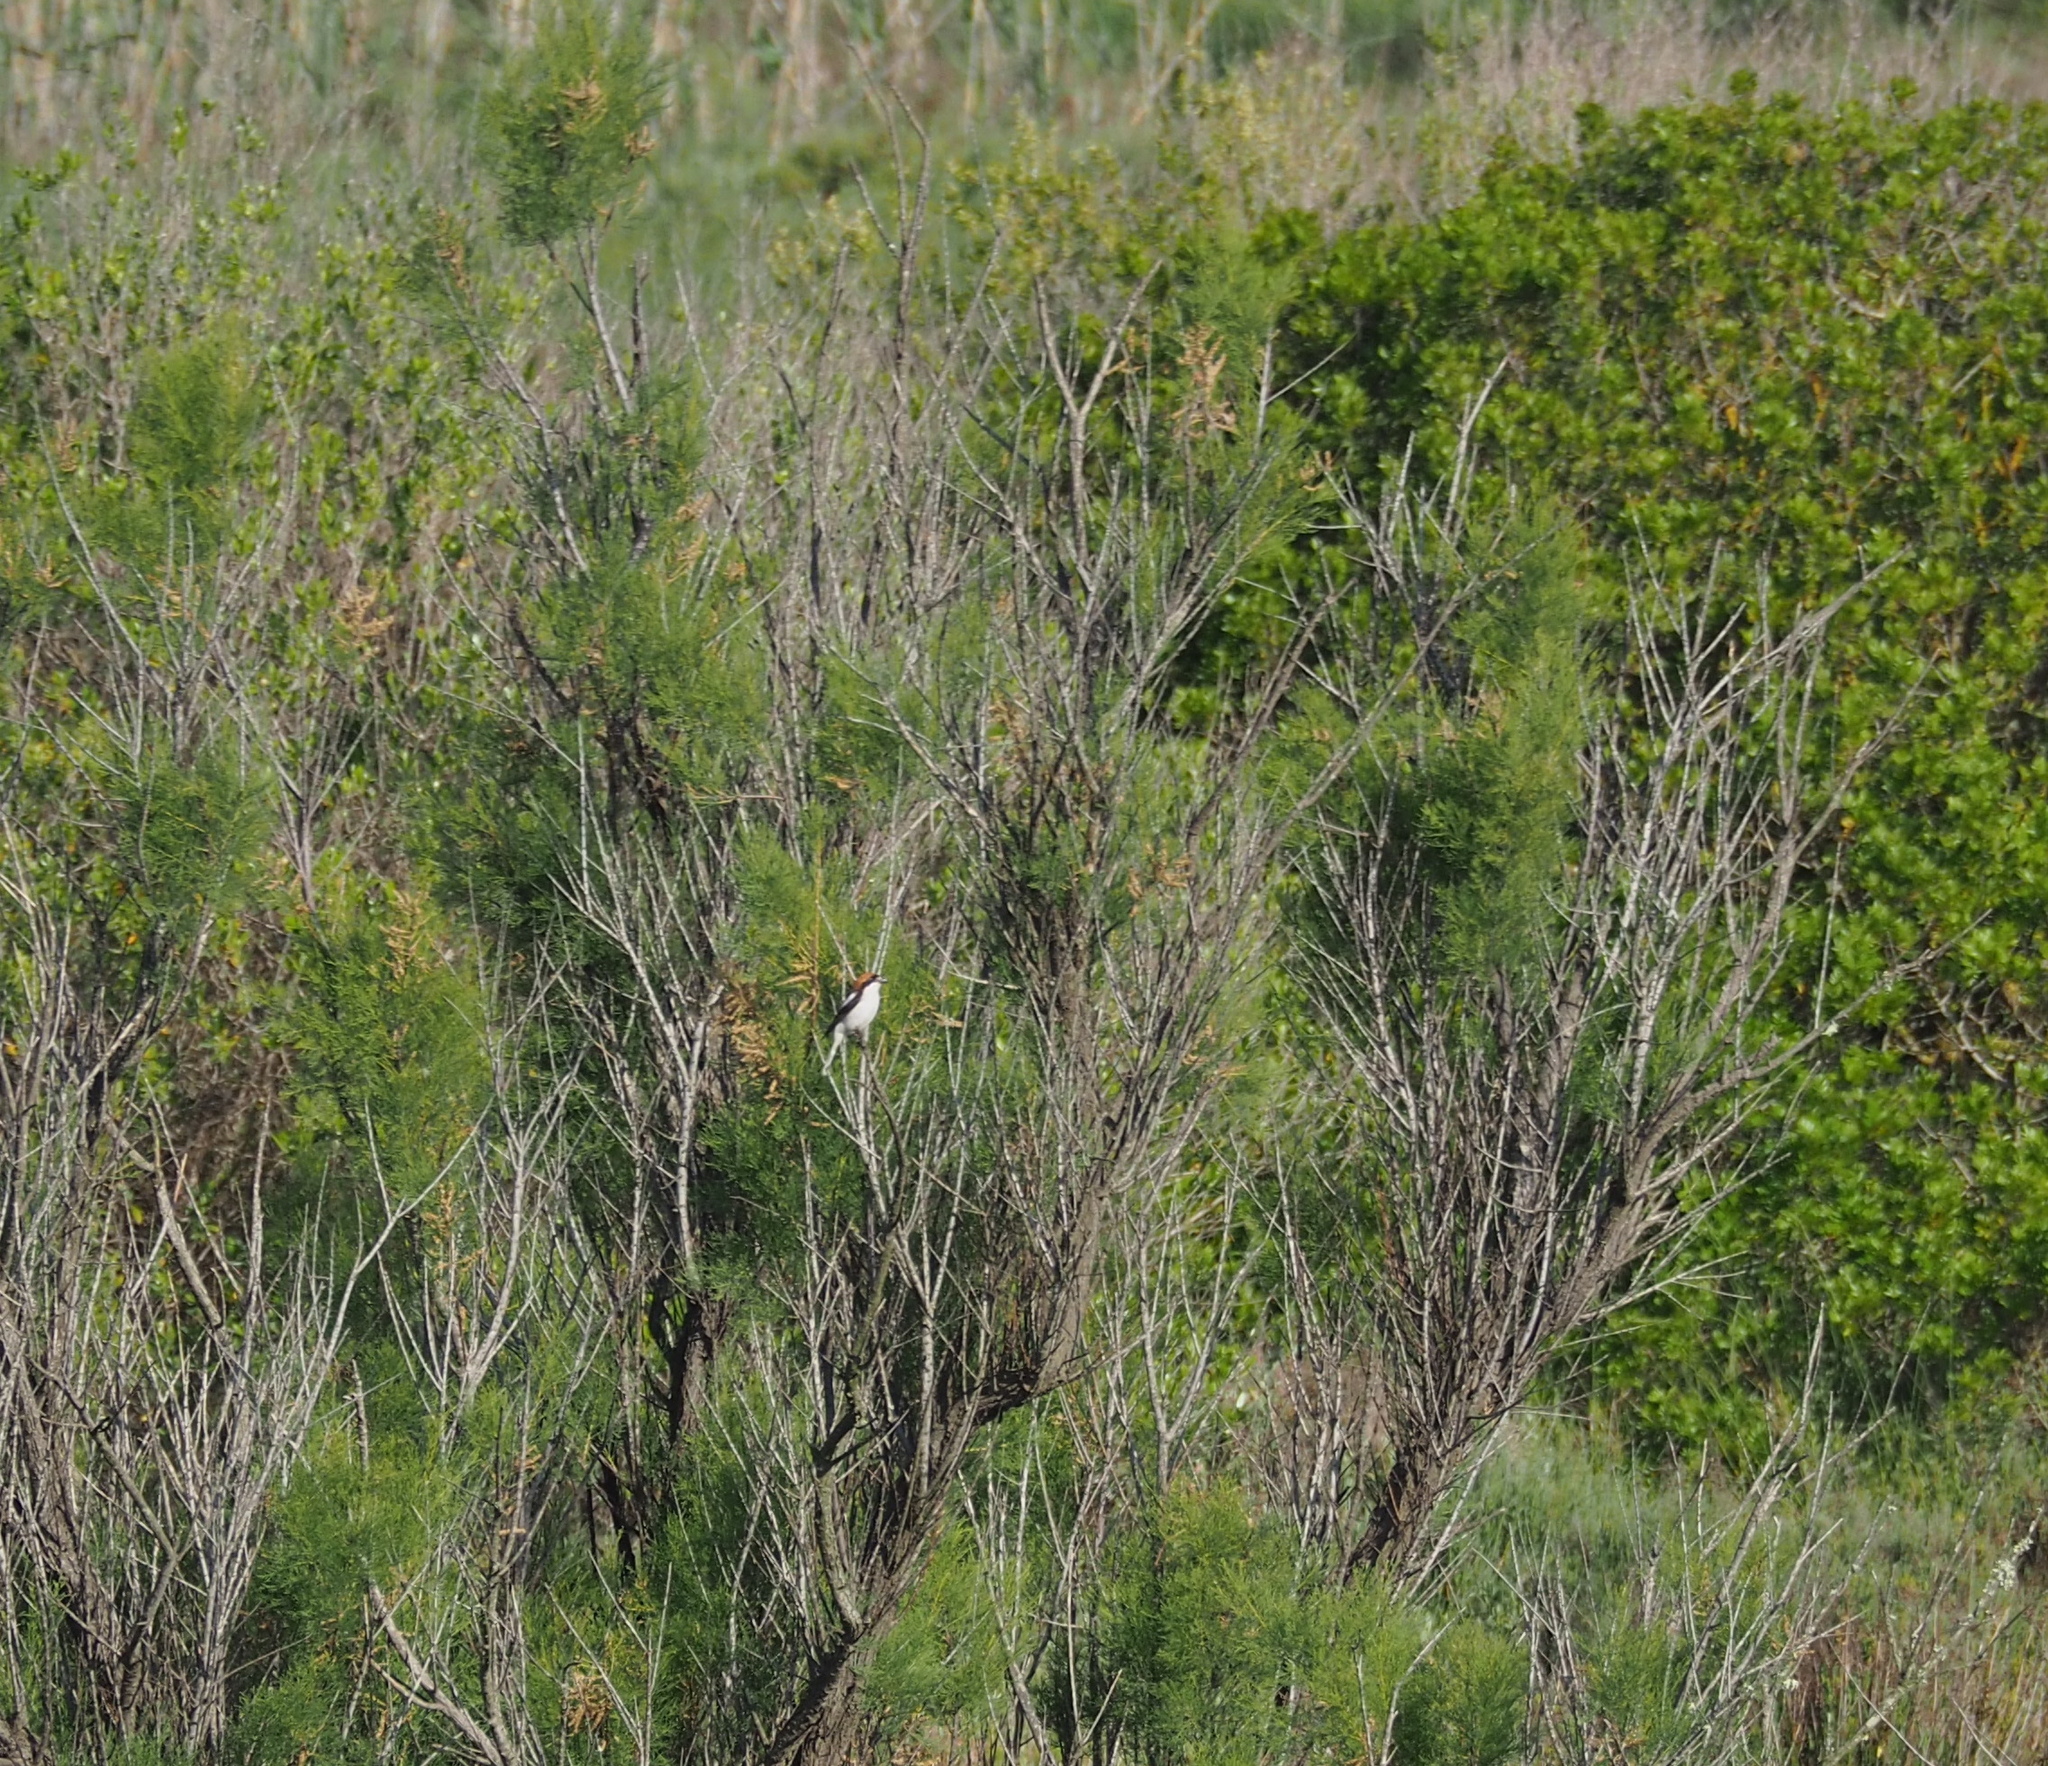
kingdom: Animalia
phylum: Chordata
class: Aves
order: Passeriformes
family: Laniidae
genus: Lanius
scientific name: Lanius senator
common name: Woodchat shrike
